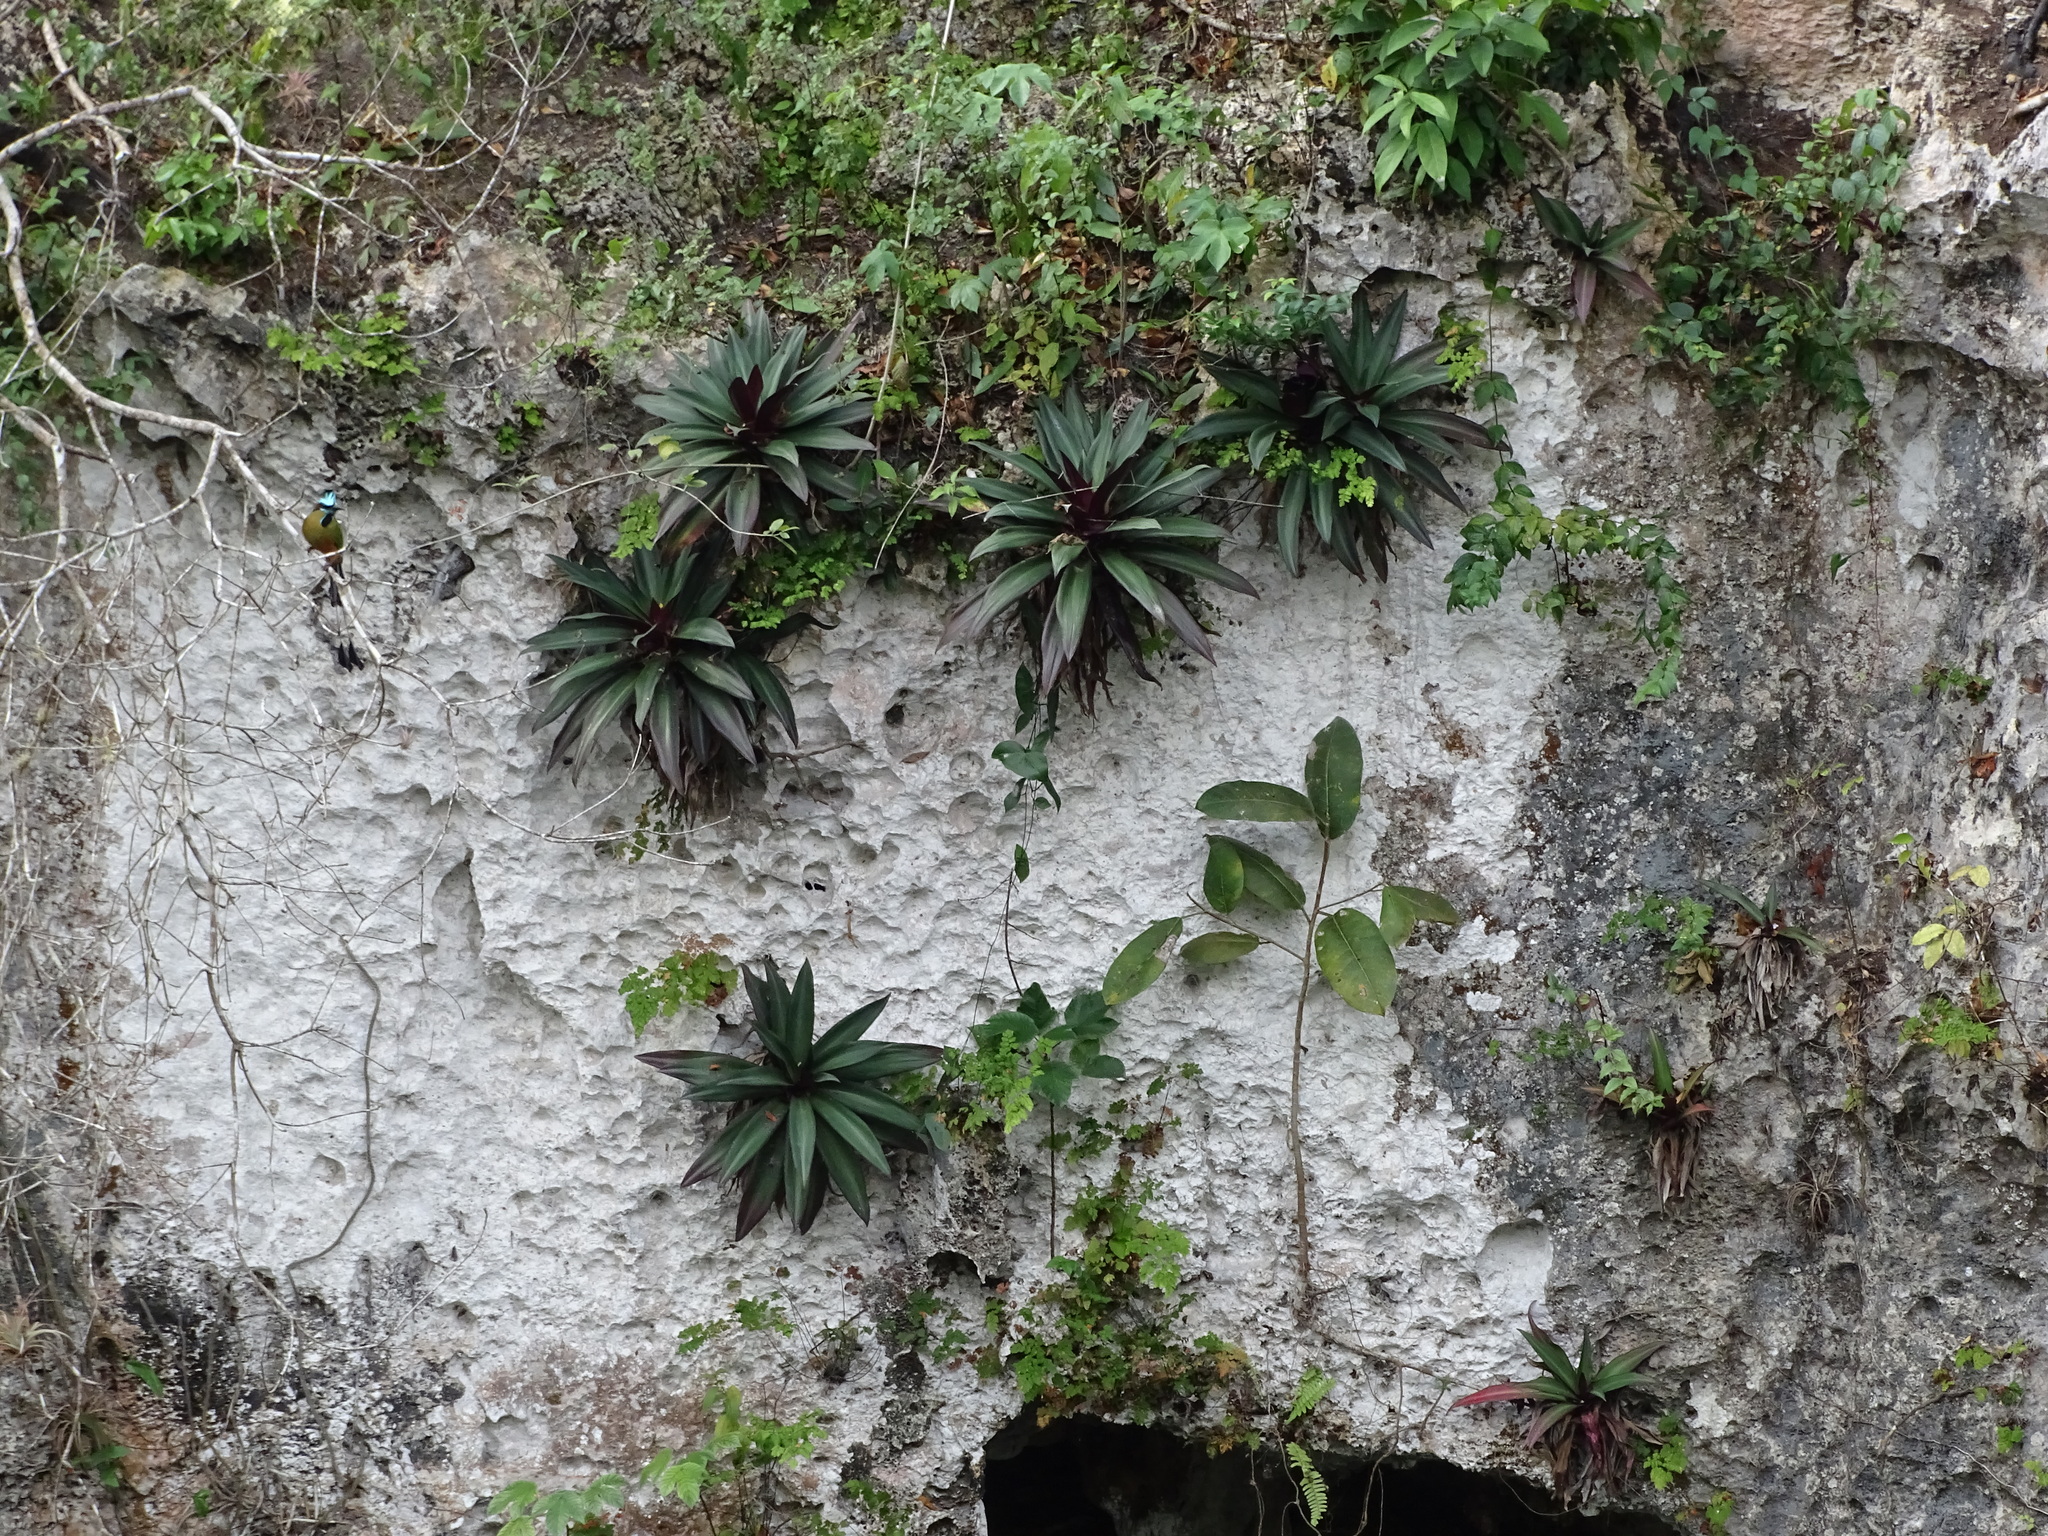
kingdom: Plantae
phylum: Tracheophyta
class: Liliopsida
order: Commelinales
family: Commelinaceae
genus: Tradescantia
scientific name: Tradescantia spathacea
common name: Boatlily
